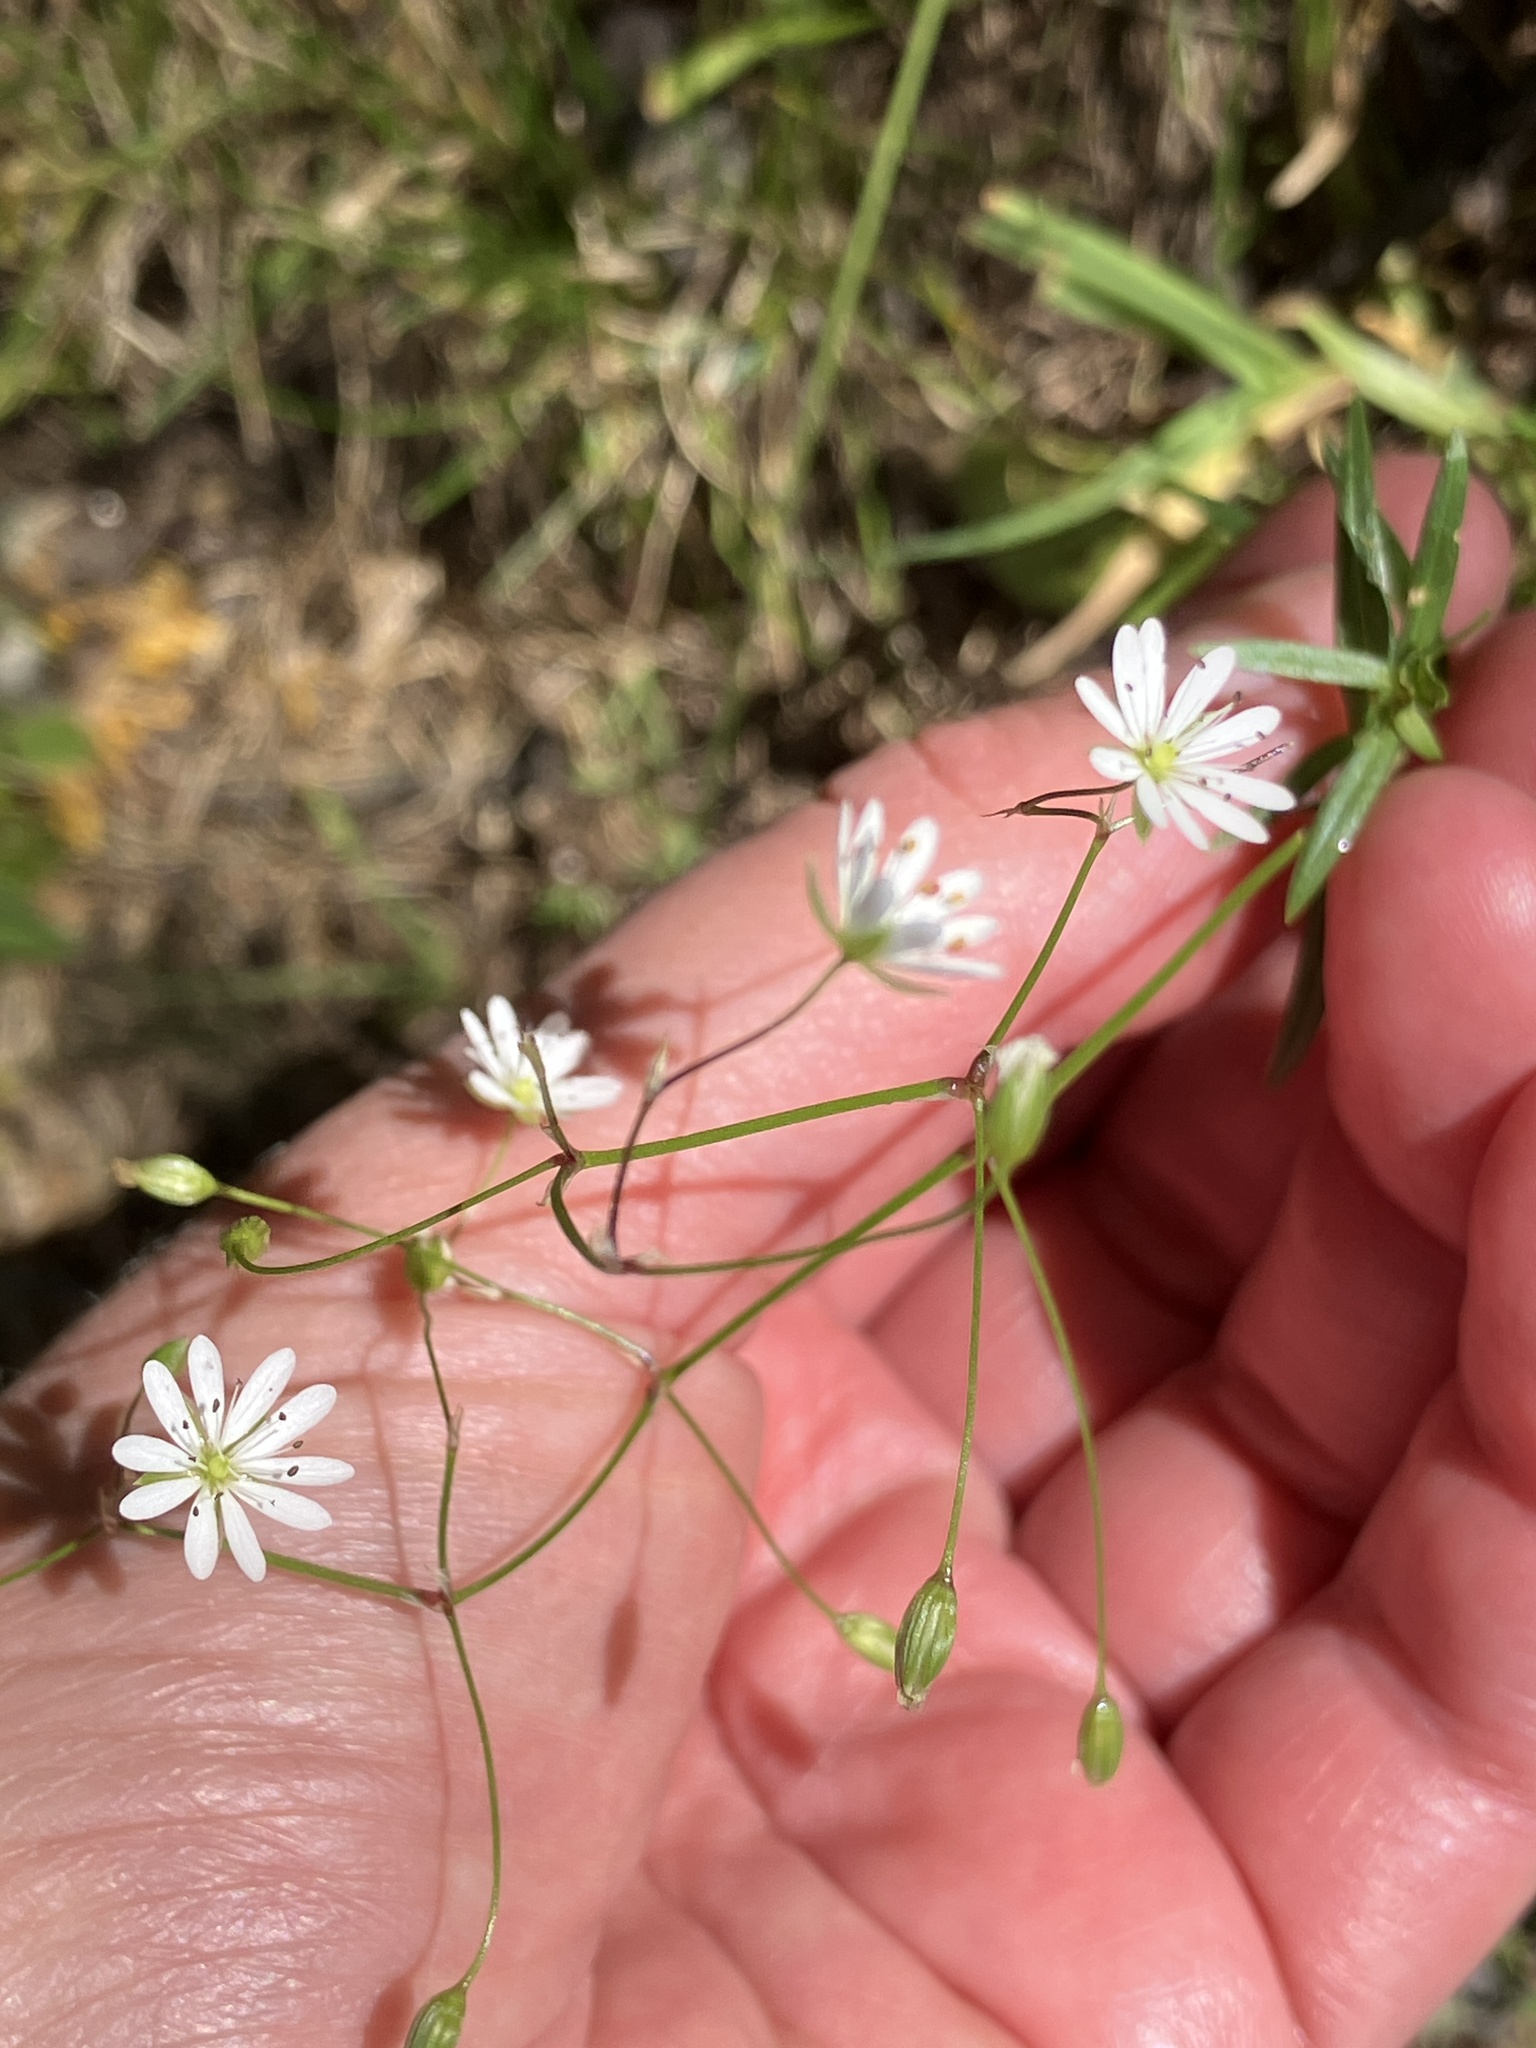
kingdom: Plantae
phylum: Tracheophyta
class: Magnoliopsida
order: Caryophyllales
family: Caryophyllaceae
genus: Stellaria
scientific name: Stellaria graminea
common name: Grass-like starwort
